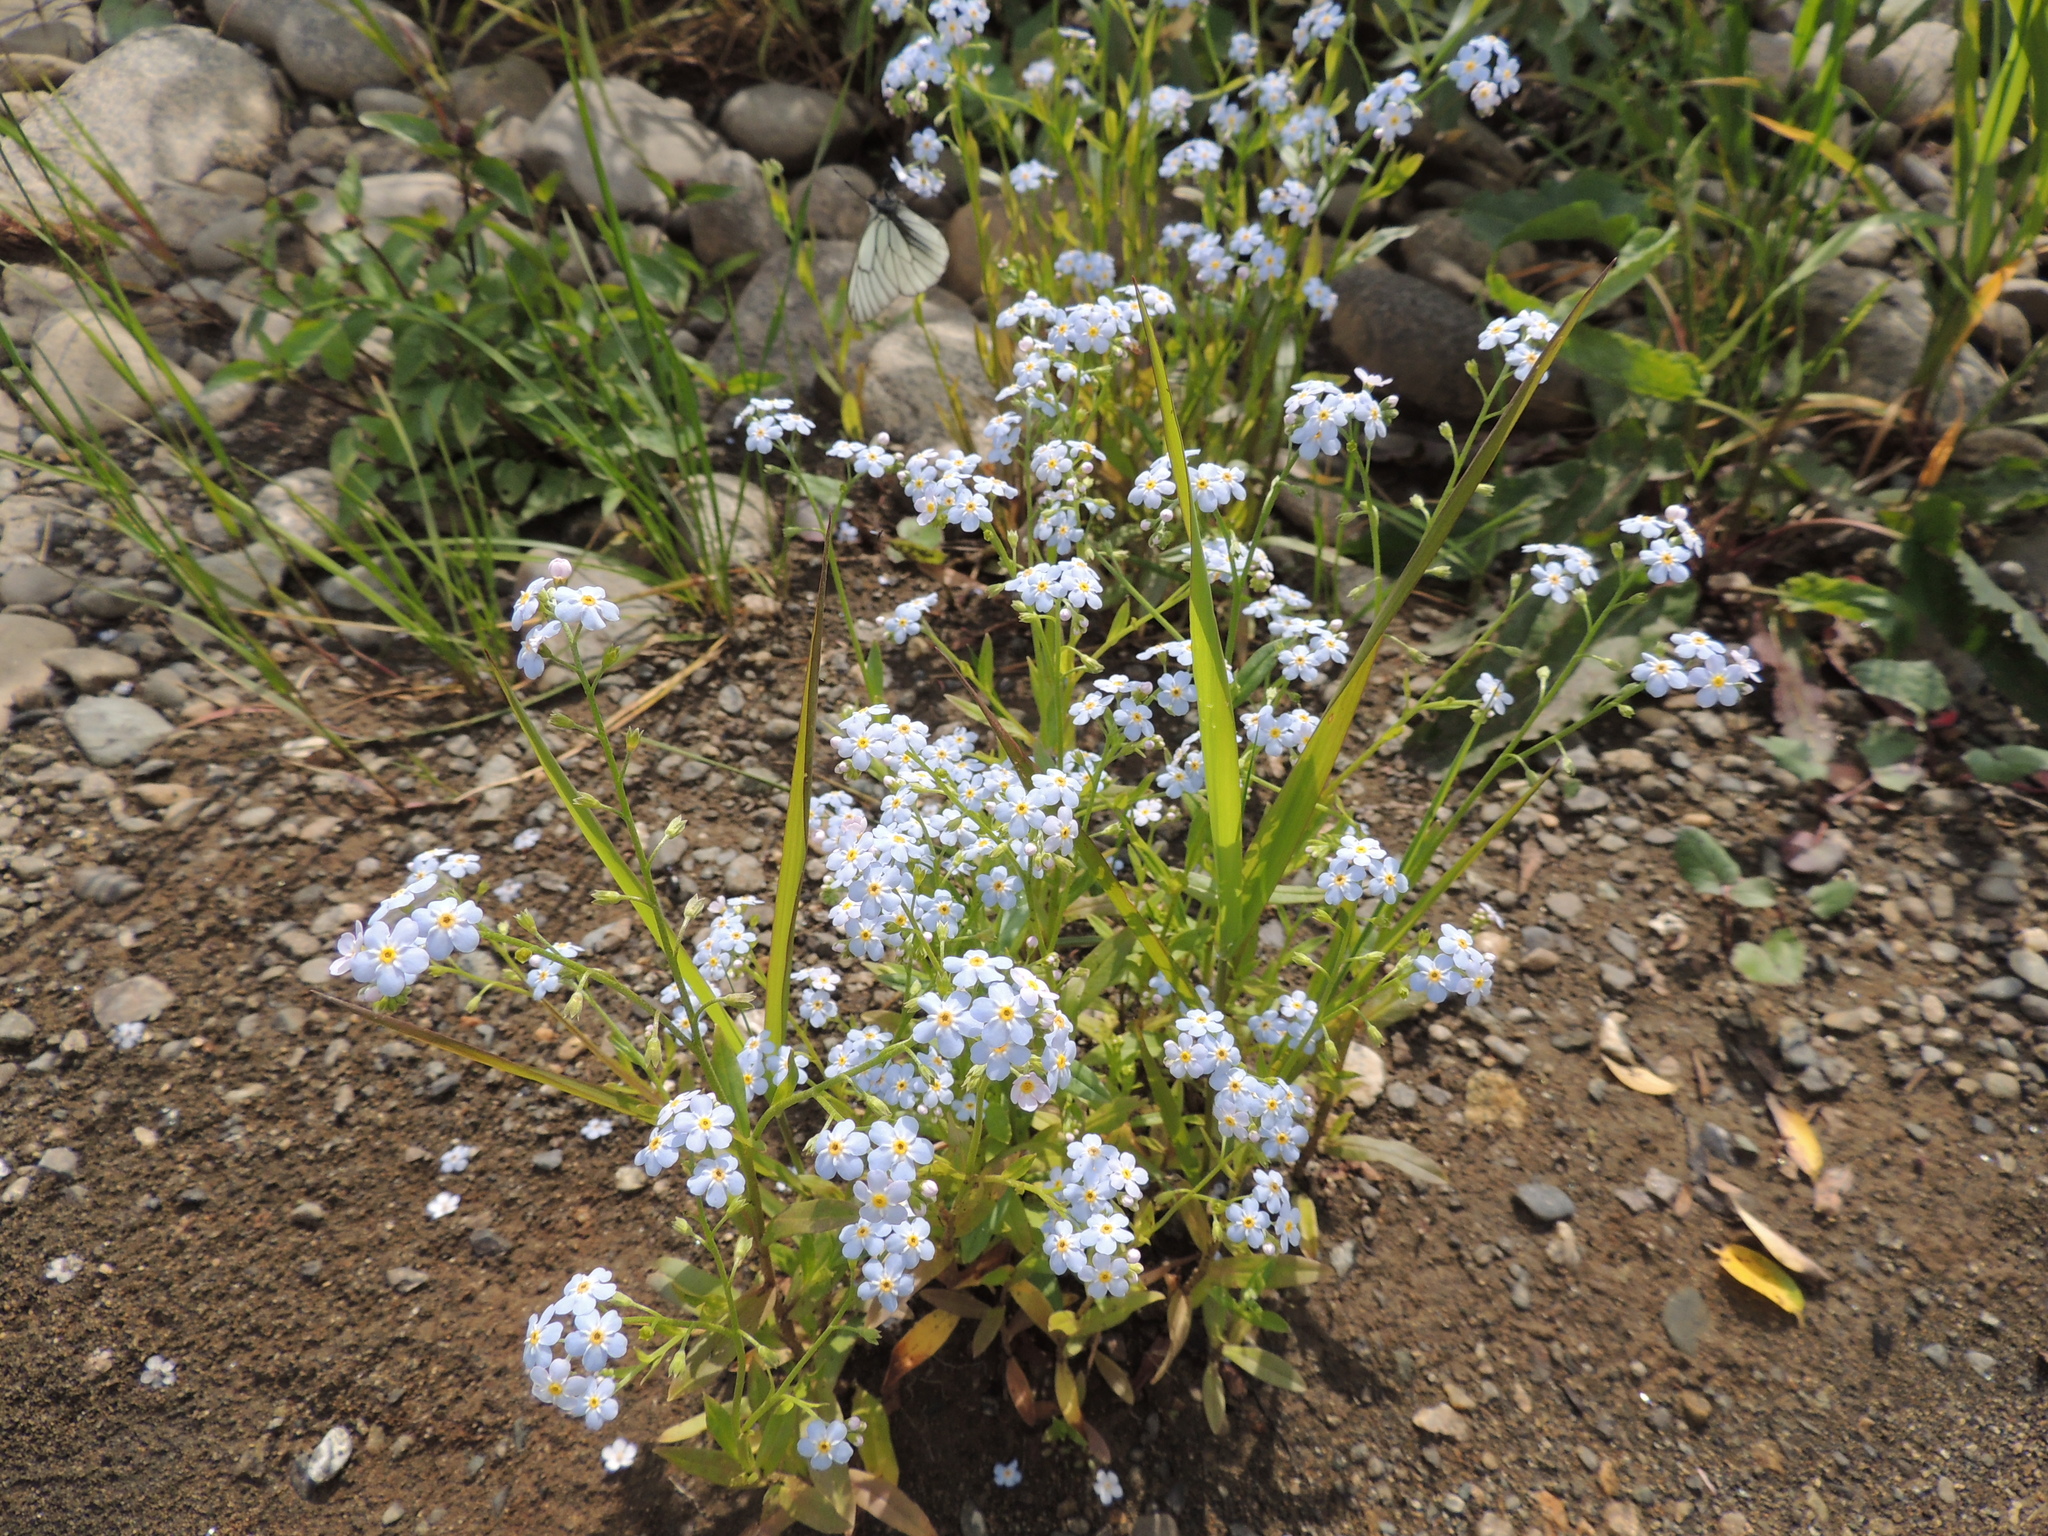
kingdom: Plantae
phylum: Tracheophyta
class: Magnoliopsida
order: Boraginales
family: Boraginaceae
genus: Myosotis
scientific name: Myosotis scorpioides
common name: Water forget-me-not
